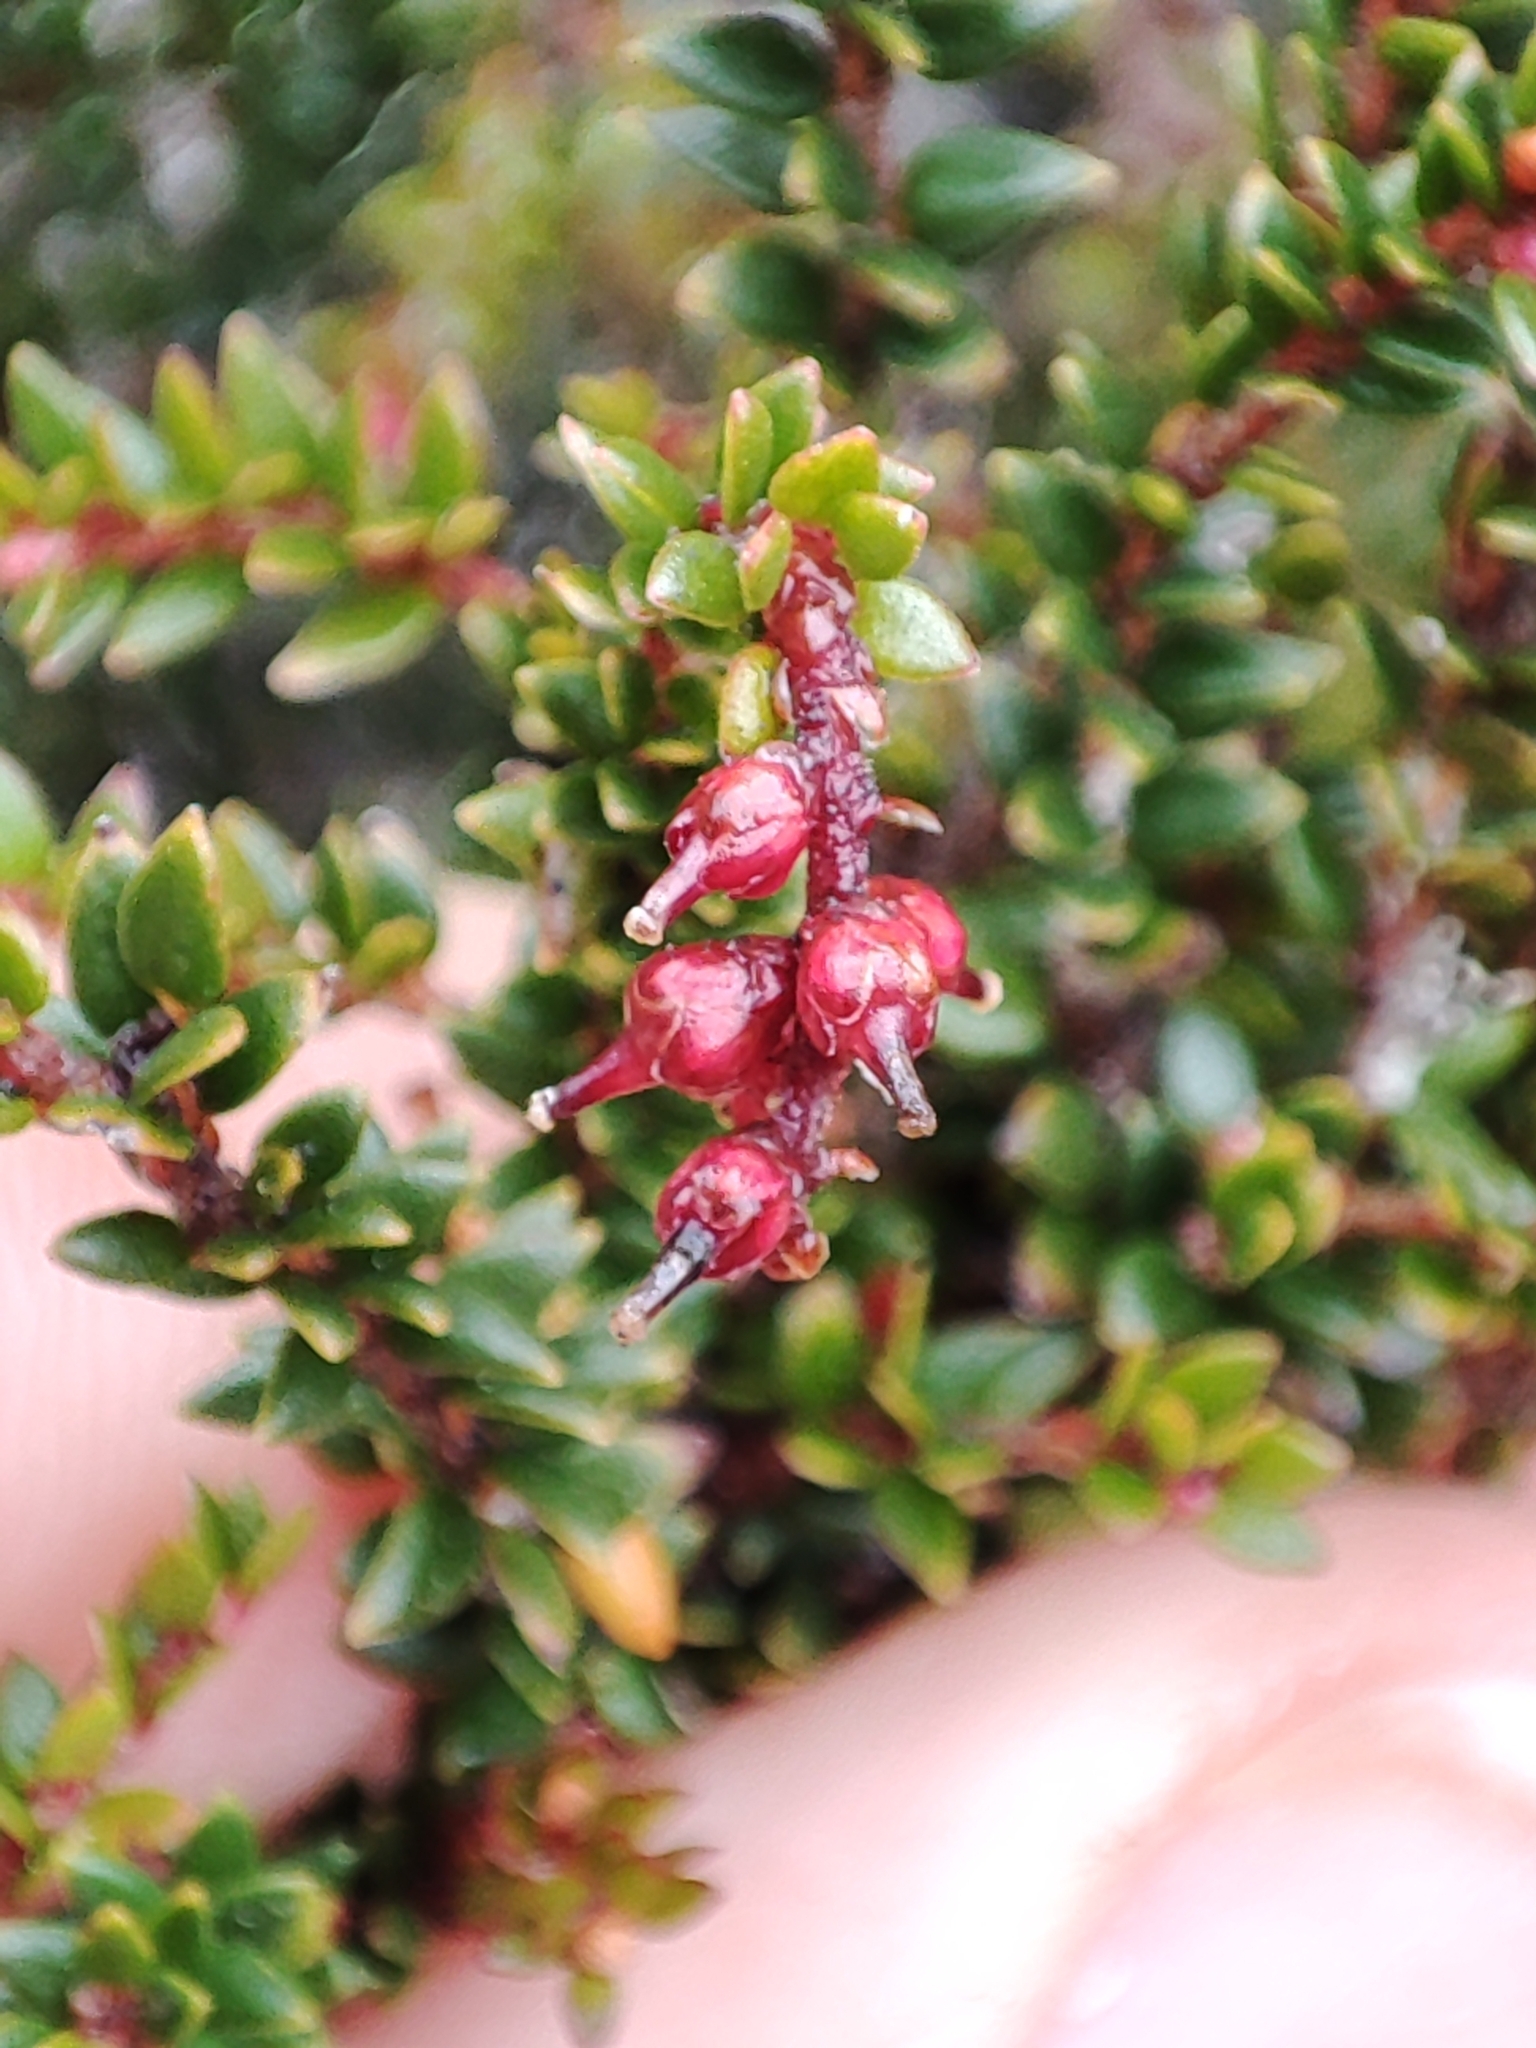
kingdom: Plantae
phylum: Tracheophyta
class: Magnoliopsida
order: Ericales
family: Ericaceae
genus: Trochocarpa
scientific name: Trochocarpa thymifolia
